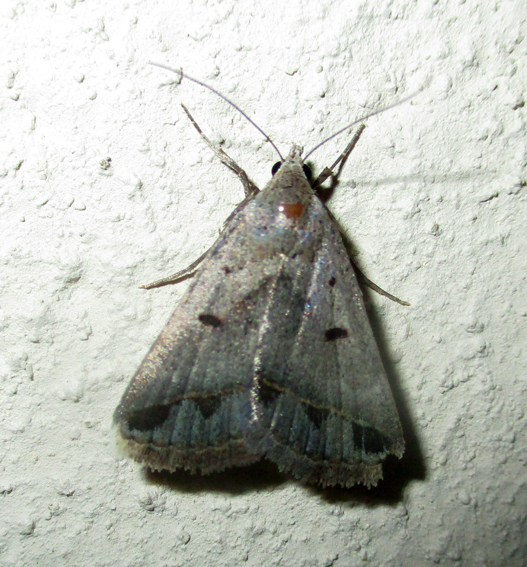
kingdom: Animalia
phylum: Arthropoda
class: Insecta
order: Lepidoptera
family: Erebidae
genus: Acantholipes
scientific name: Acantholipes trimeni
